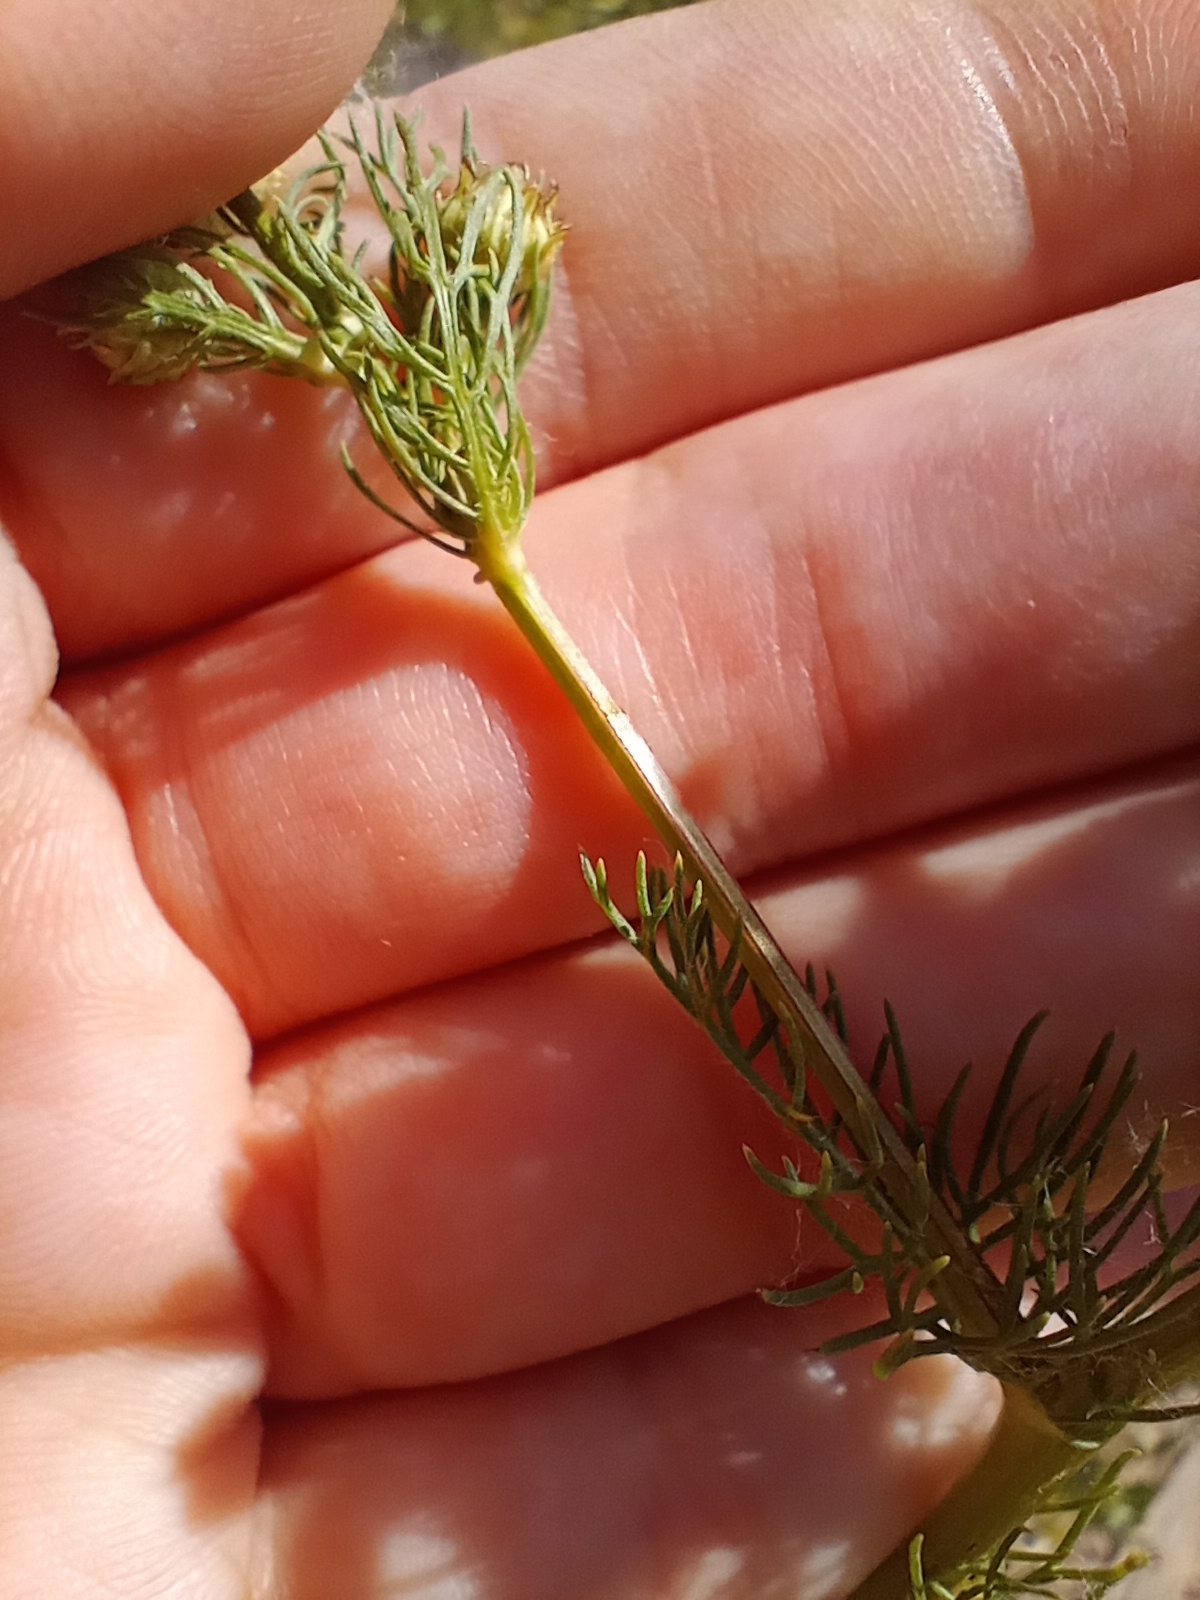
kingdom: Plantae
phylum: Tracheophyta
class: Magnoliopsida
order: Asterales
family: Asteraceae
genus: Tripleurospermum
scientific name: Tripleurospermum inodorum
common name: Scentless mayweed
